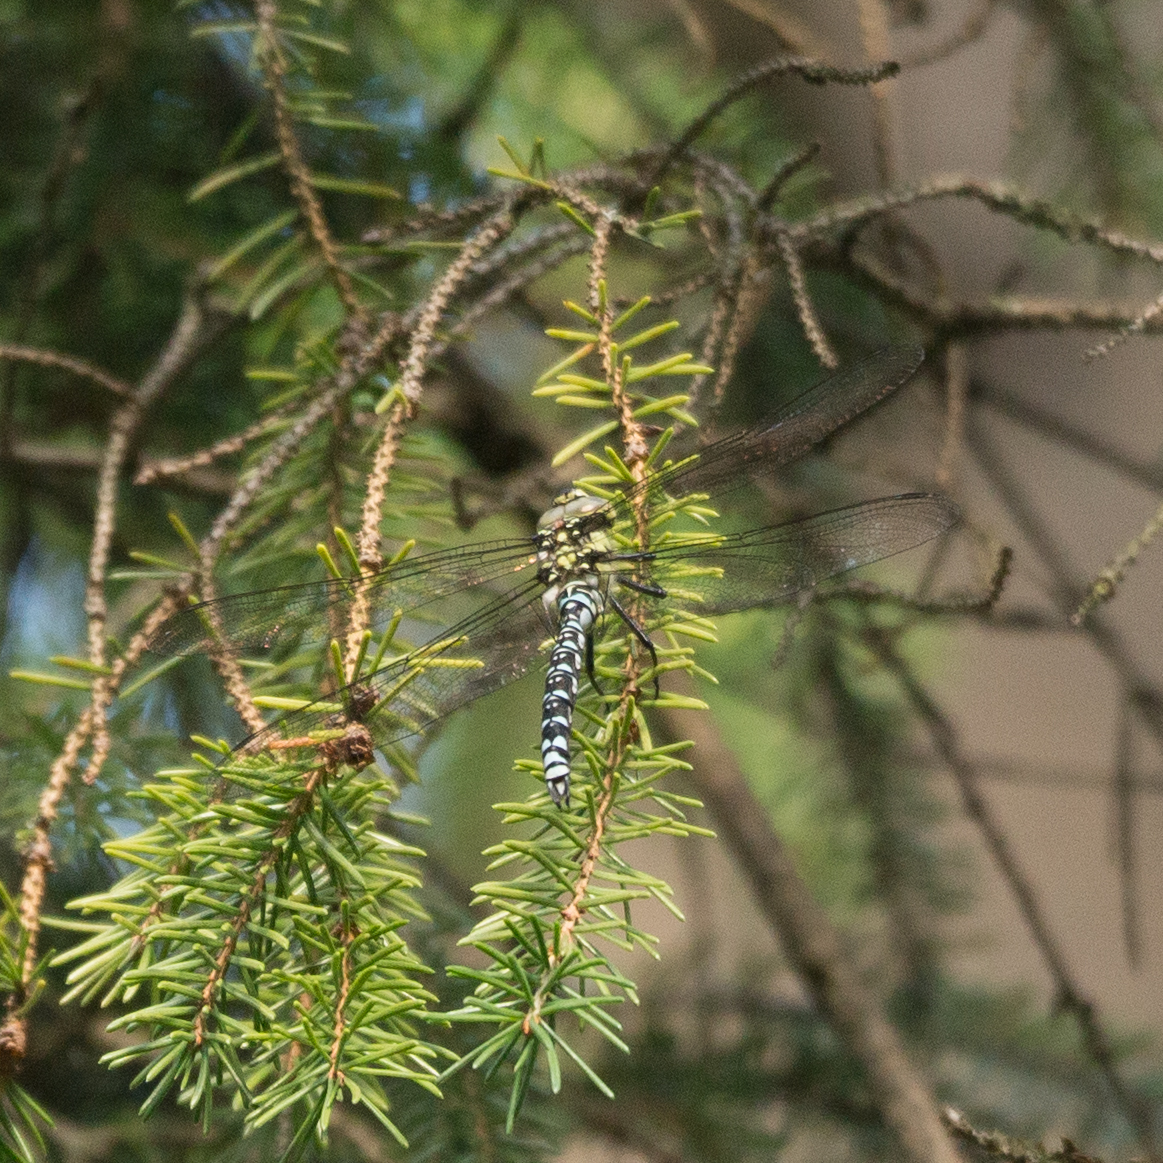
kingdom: Animalia
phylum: Arthropoda
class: Insecta
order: Odonata
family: Aeshnidae
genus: Aeshna
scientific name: Aeshna cyanea
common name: Southern hawker
